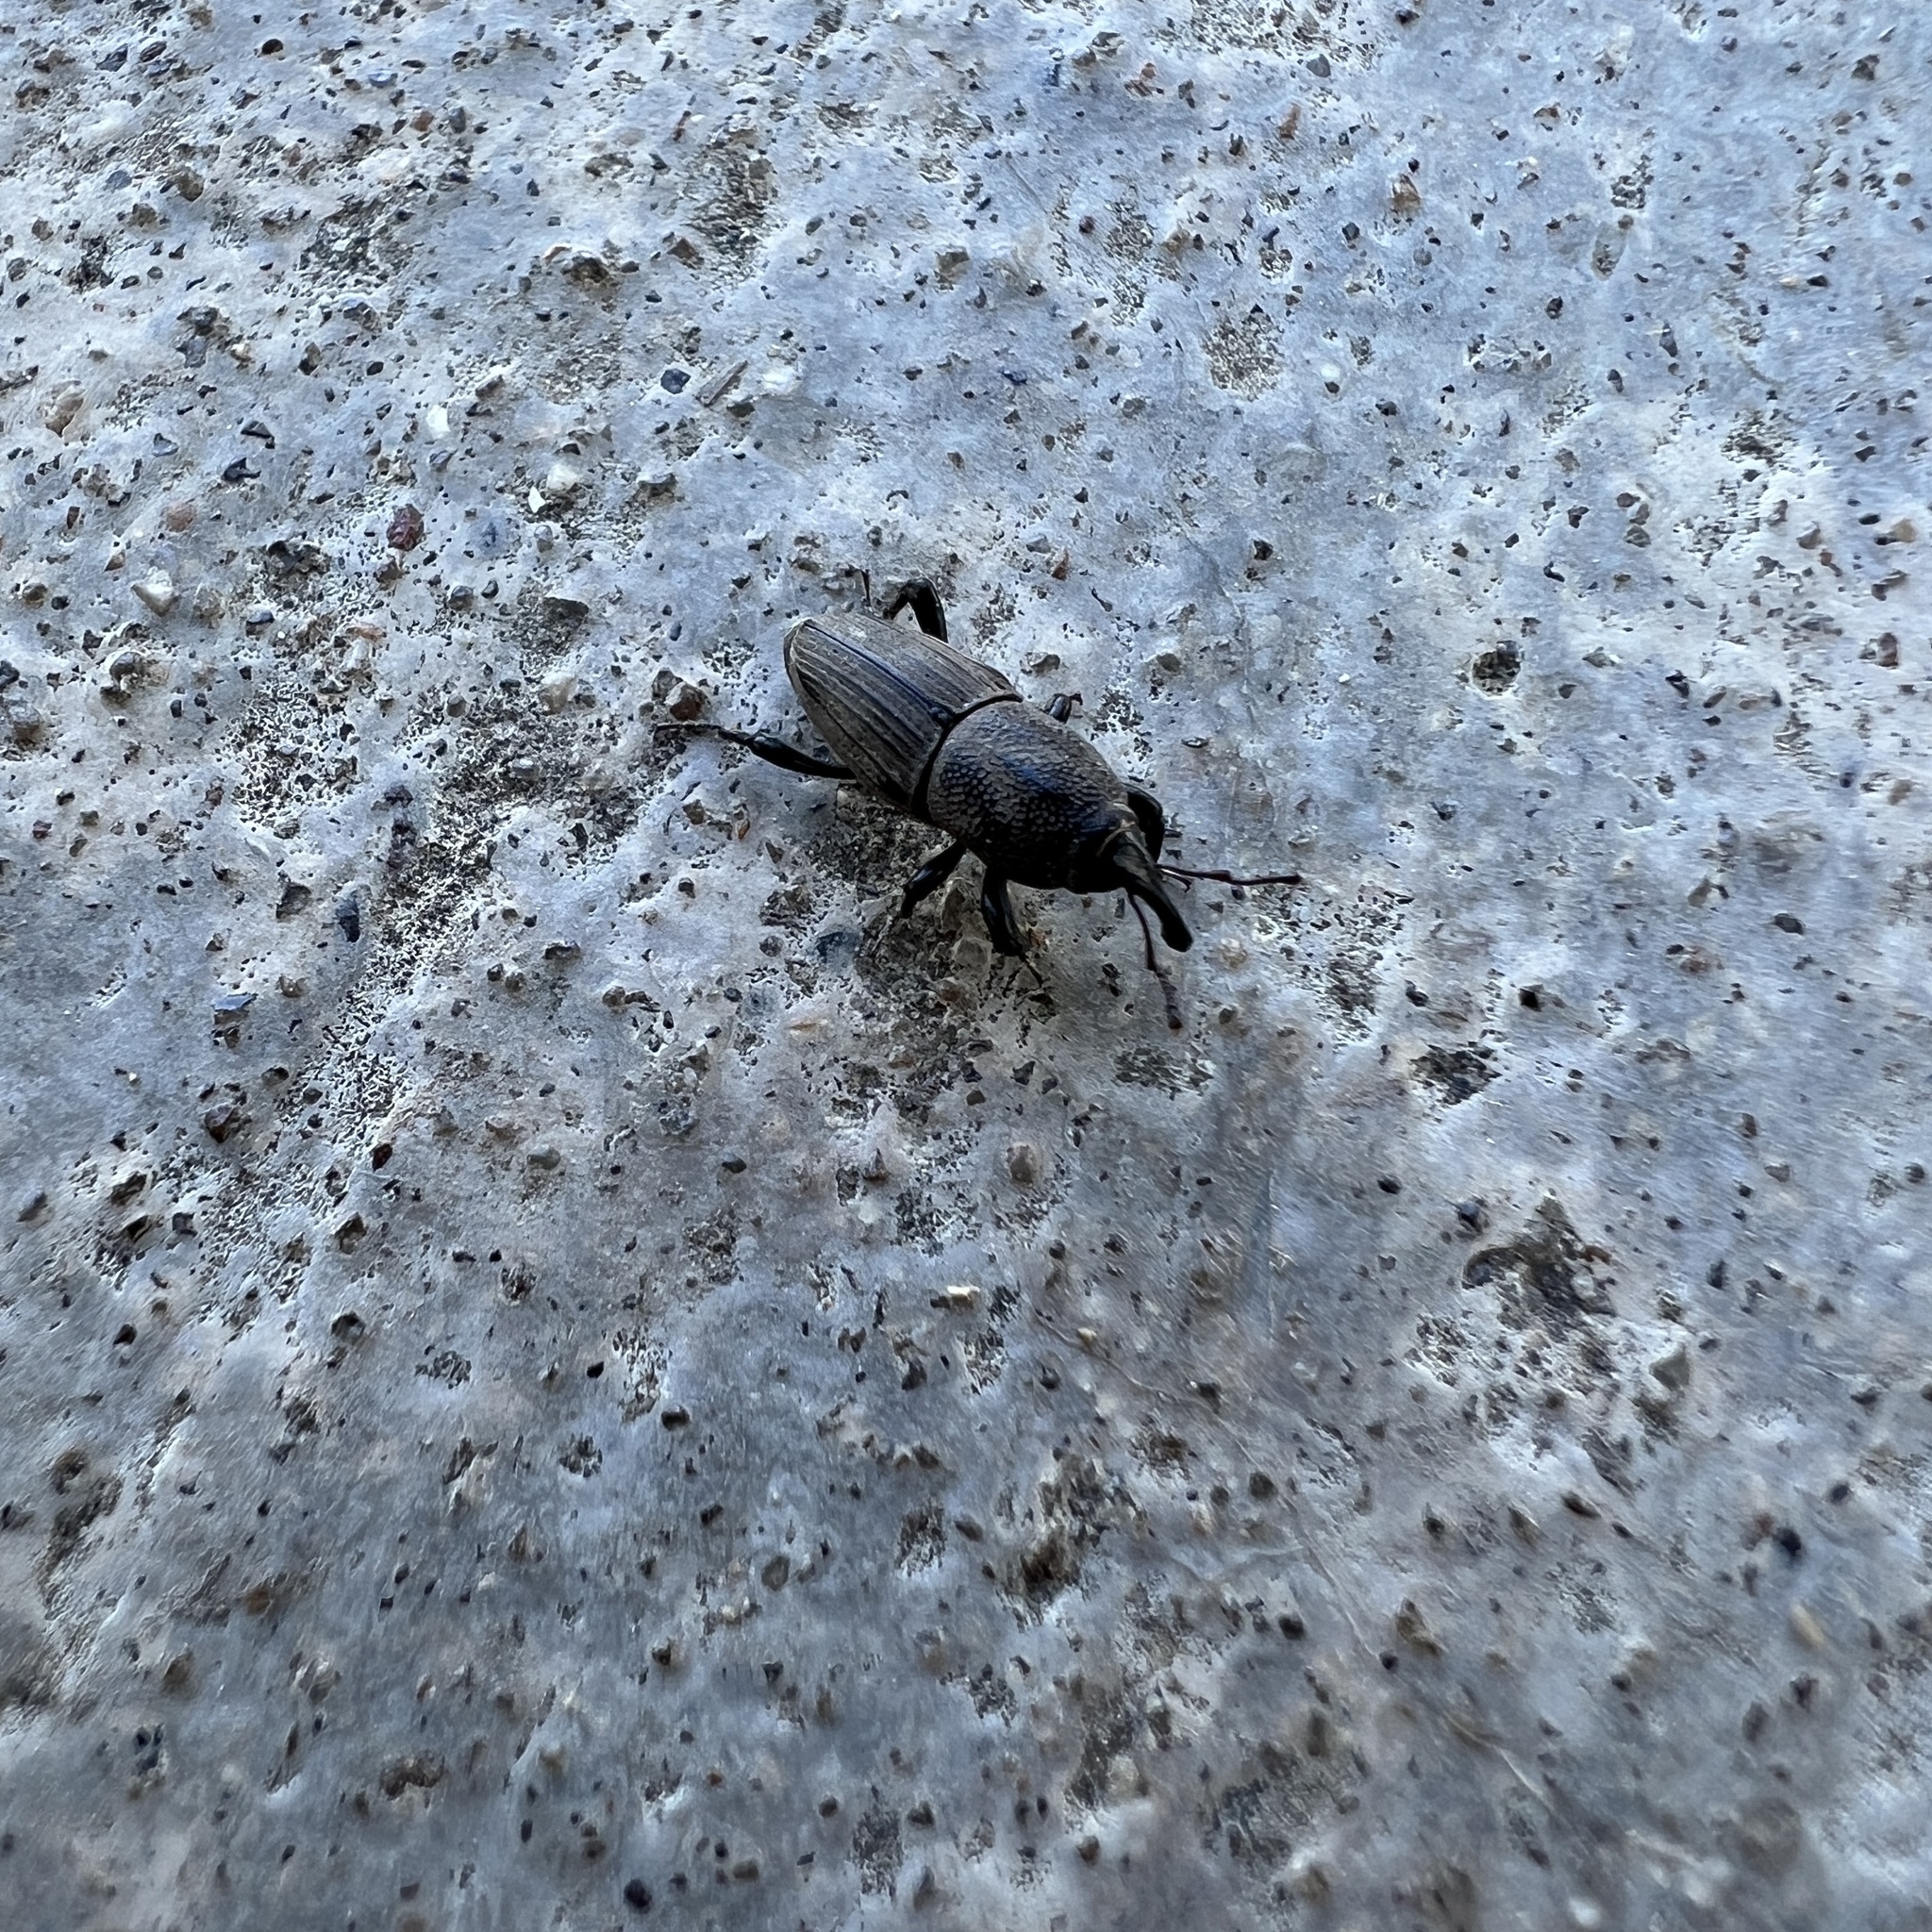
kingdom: Animalia
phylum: Arthropoda
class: Insecta
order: Coleoptera
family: Dryophthoridae
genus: Sphenophorus
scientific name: Sphenophorus coesifrons
